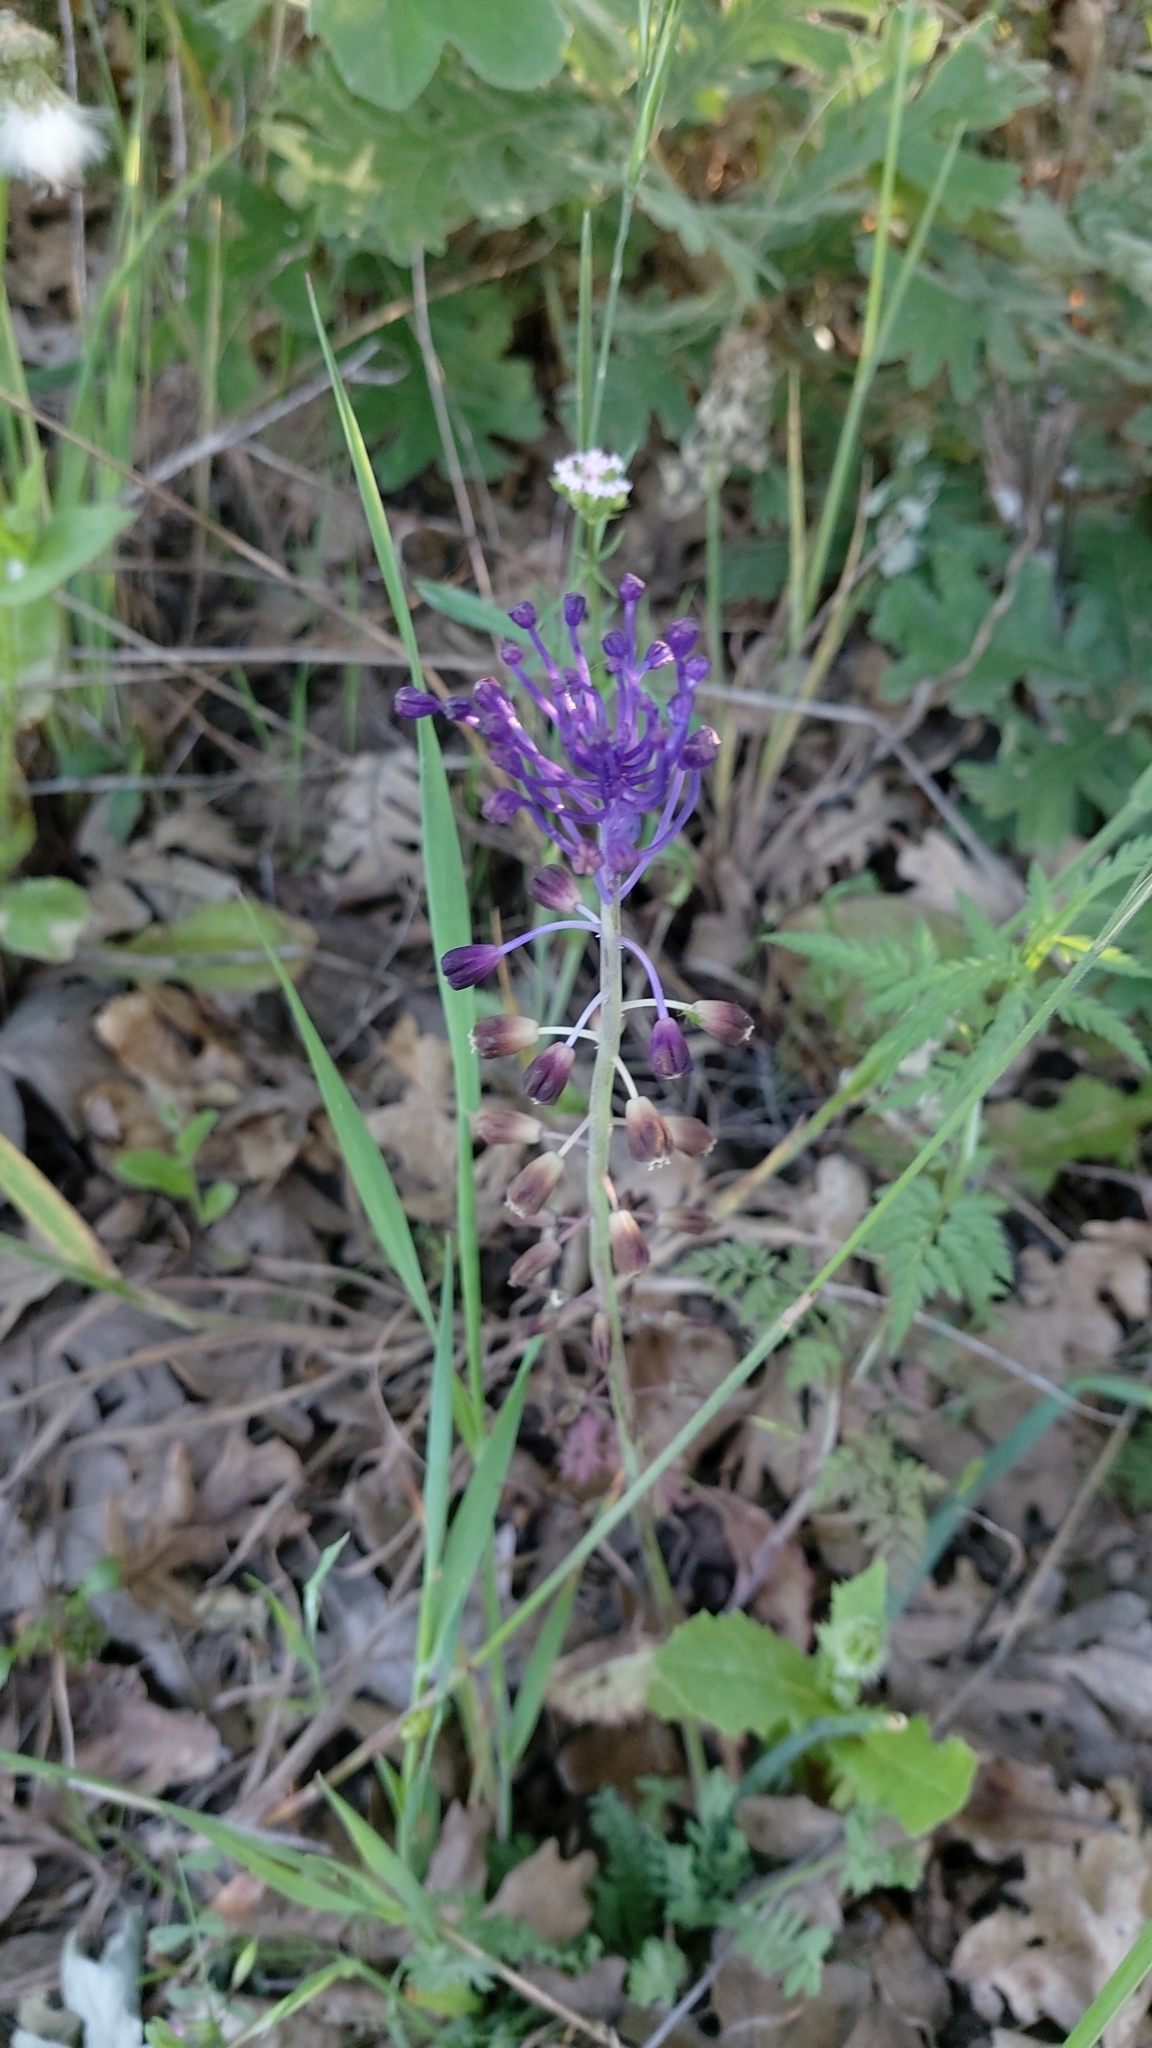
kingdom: Plantae
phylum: Tracheophyta
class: Liliopsida
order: Asparagales
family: Asparagaceae
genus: Muscari
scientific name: Muscari comosum
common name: Tassel hyacinth
